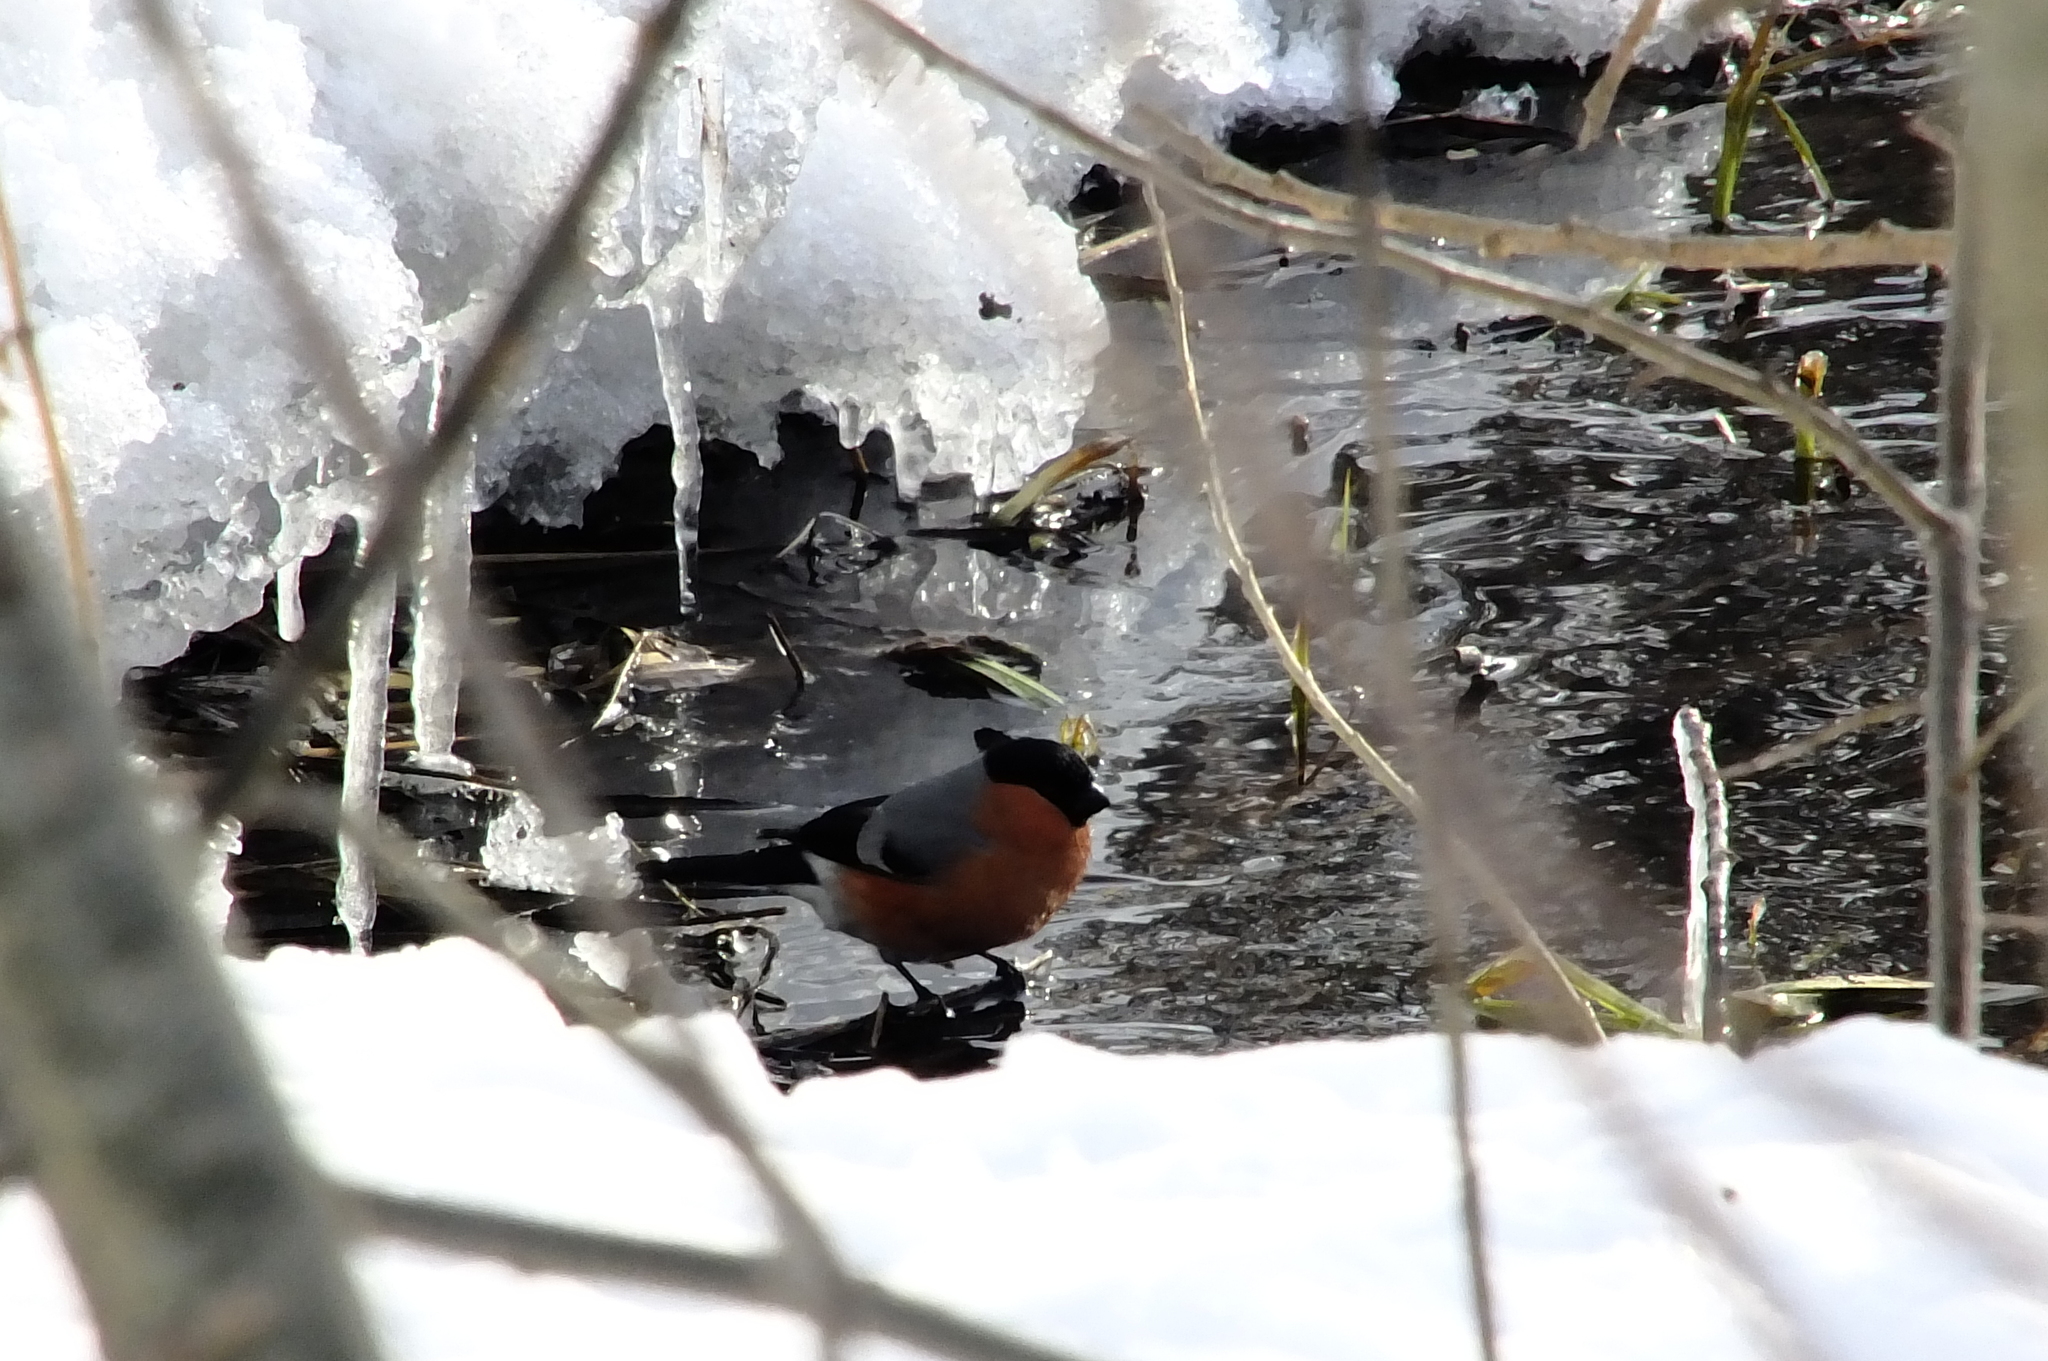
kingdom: Animalia
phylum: Chordata
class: Aves
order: Passeriformes
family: Fringillidae
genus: Pyrrhula
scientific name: Pyrrhula pyrrhula
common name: Eurasian bullfinch
